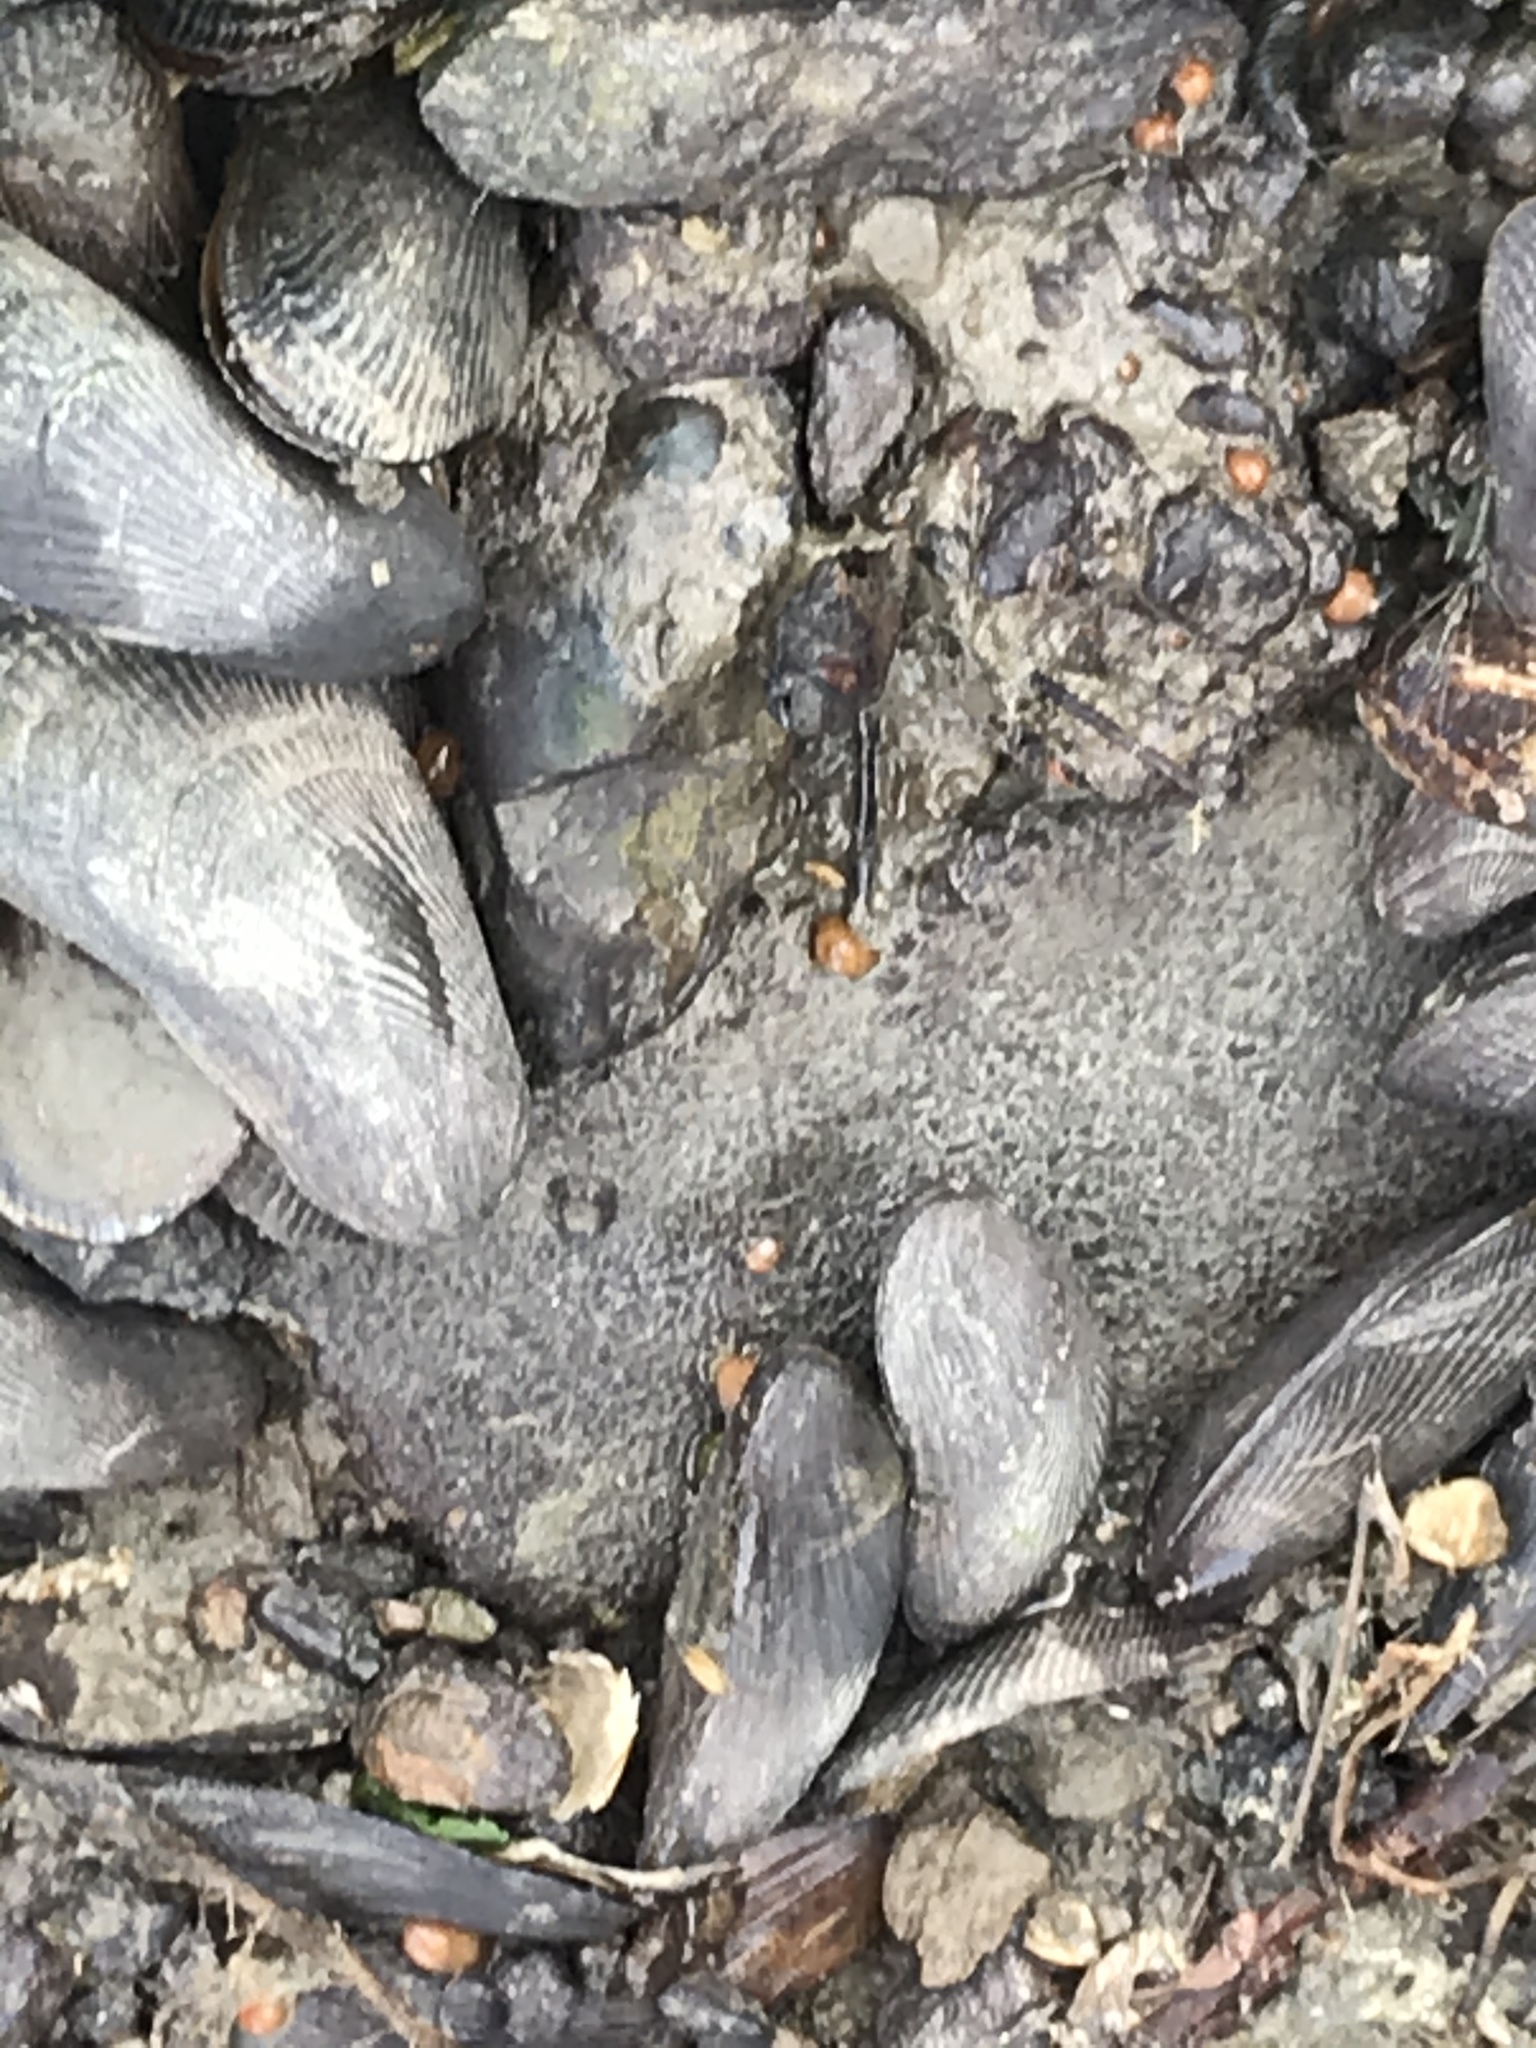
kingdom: Animalia
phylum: Mollusca
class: Bivalvia
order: Mytilida
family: Mytilidae
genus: Geukensia
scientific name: Geukensia demissa
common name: Ribbed mussel
